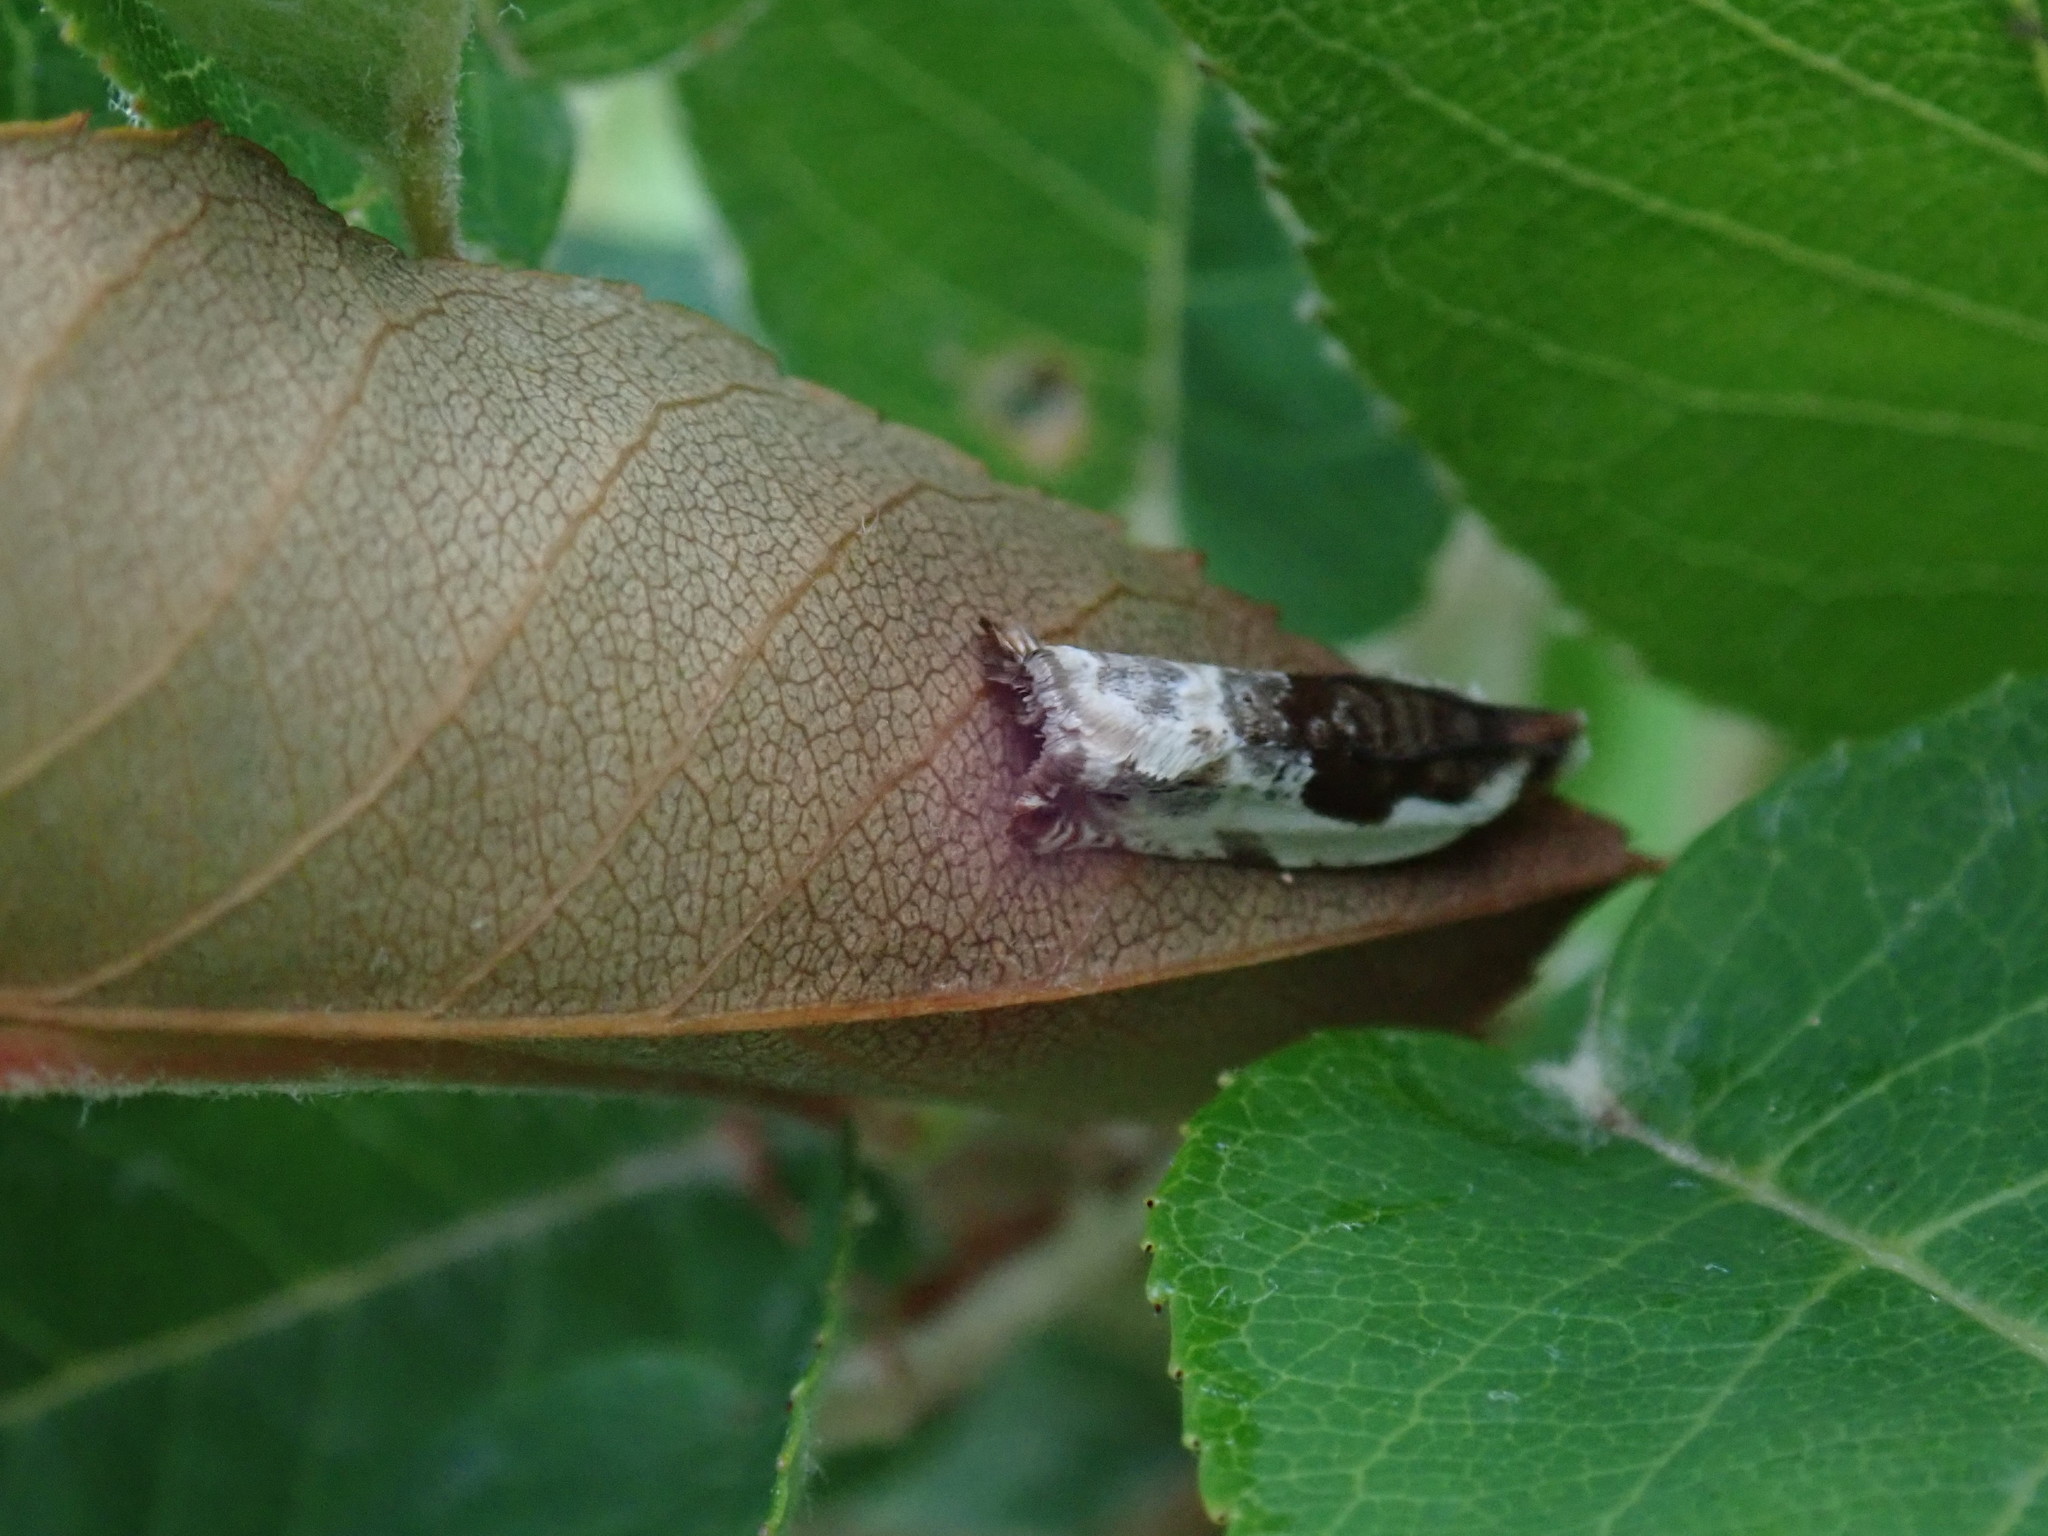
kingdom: Animalia
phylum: Arthropoda
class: Insecta
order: Lepidoptera
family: Tortricidae
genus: Ancylis
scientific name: Ancylis nubeculana
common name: Little cloud ancylis moth
